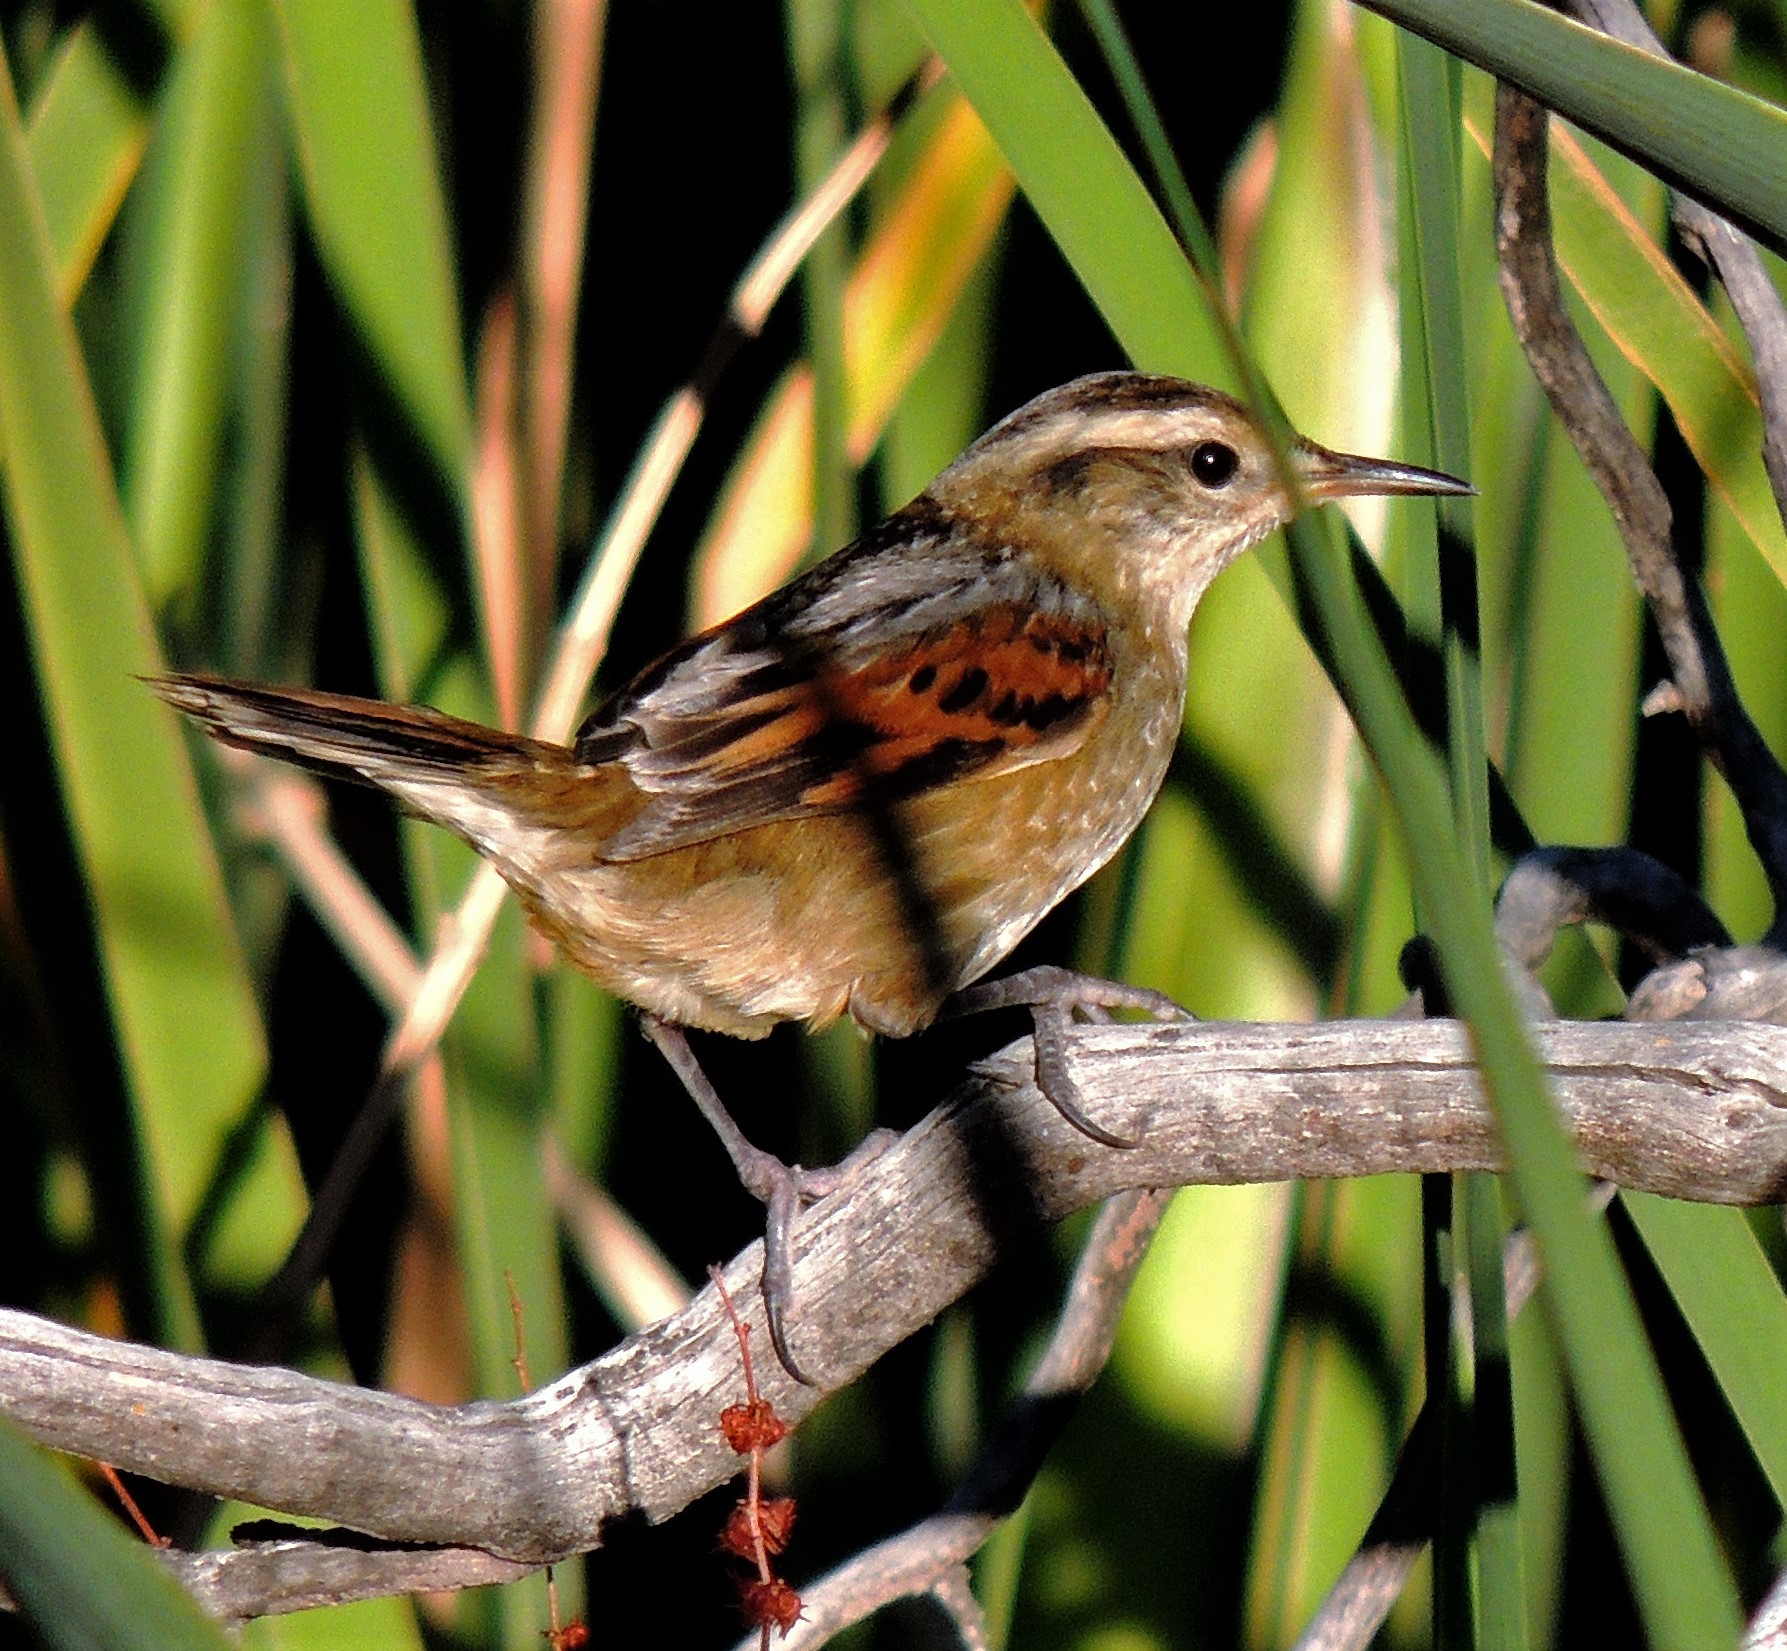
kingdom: Animalia
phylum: Chordata
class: Aves
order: Passeriformes
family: Furnariidae
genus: Phleocryptes
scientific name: Phleocryptes melanops
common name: Wren-like rushbird
